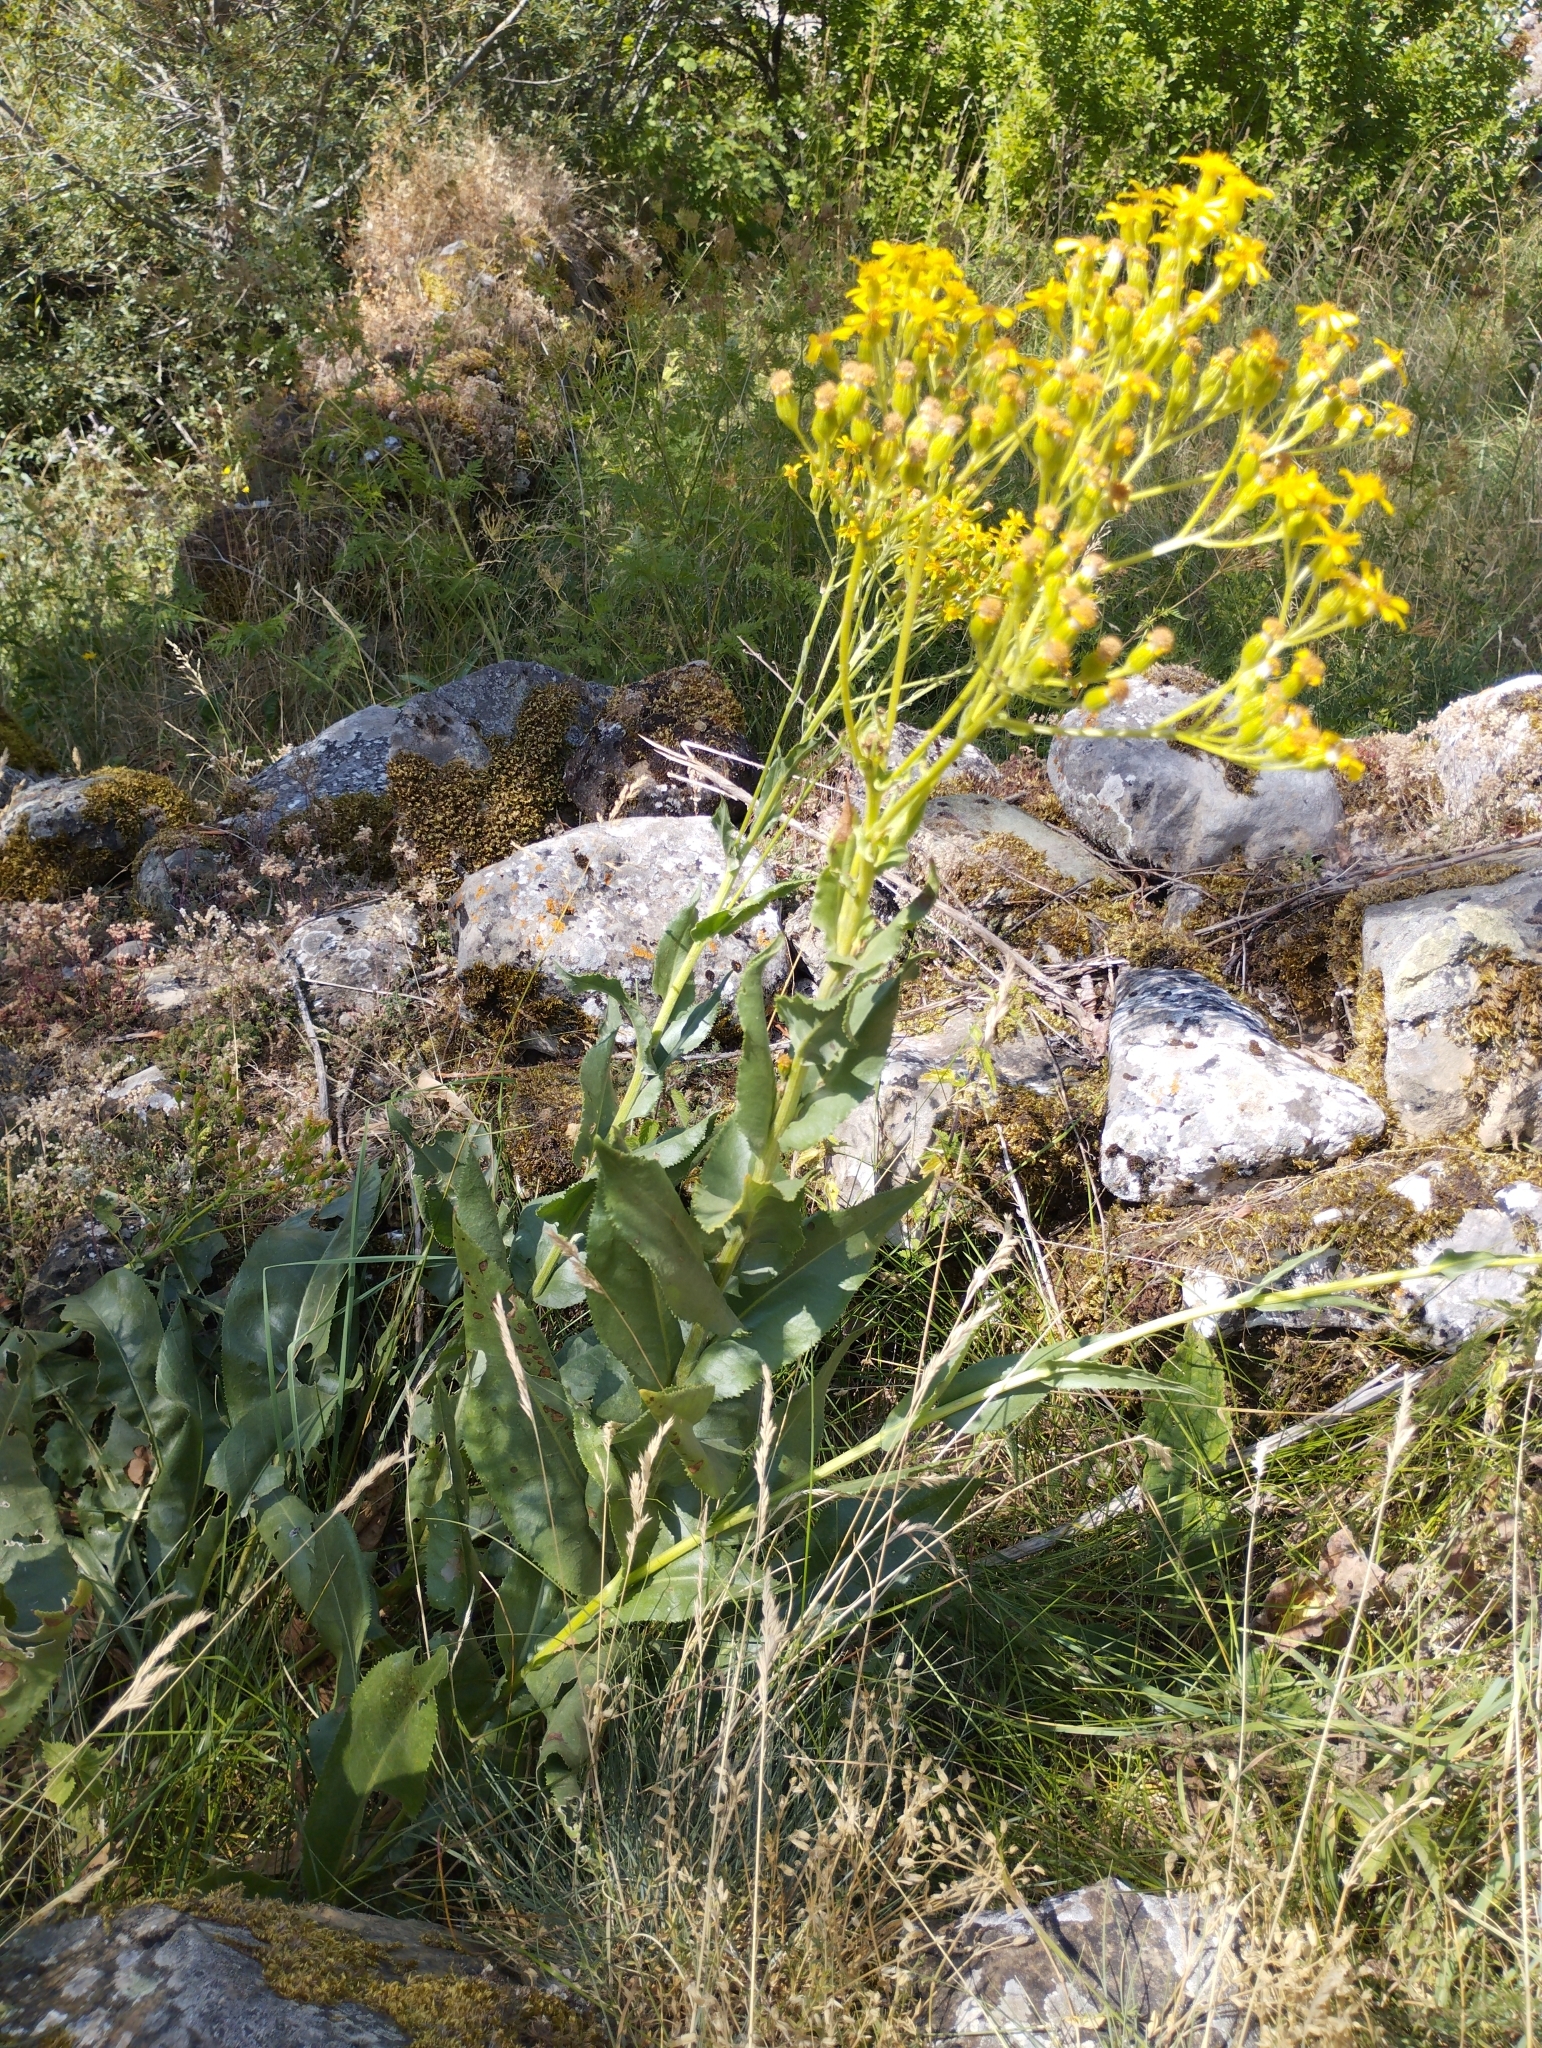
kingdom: Plantae
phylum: Tracheophyta
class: Magnoliopsida
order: Asterales
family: Asteraceae
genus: Senecio
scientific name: Senecio altissimus
